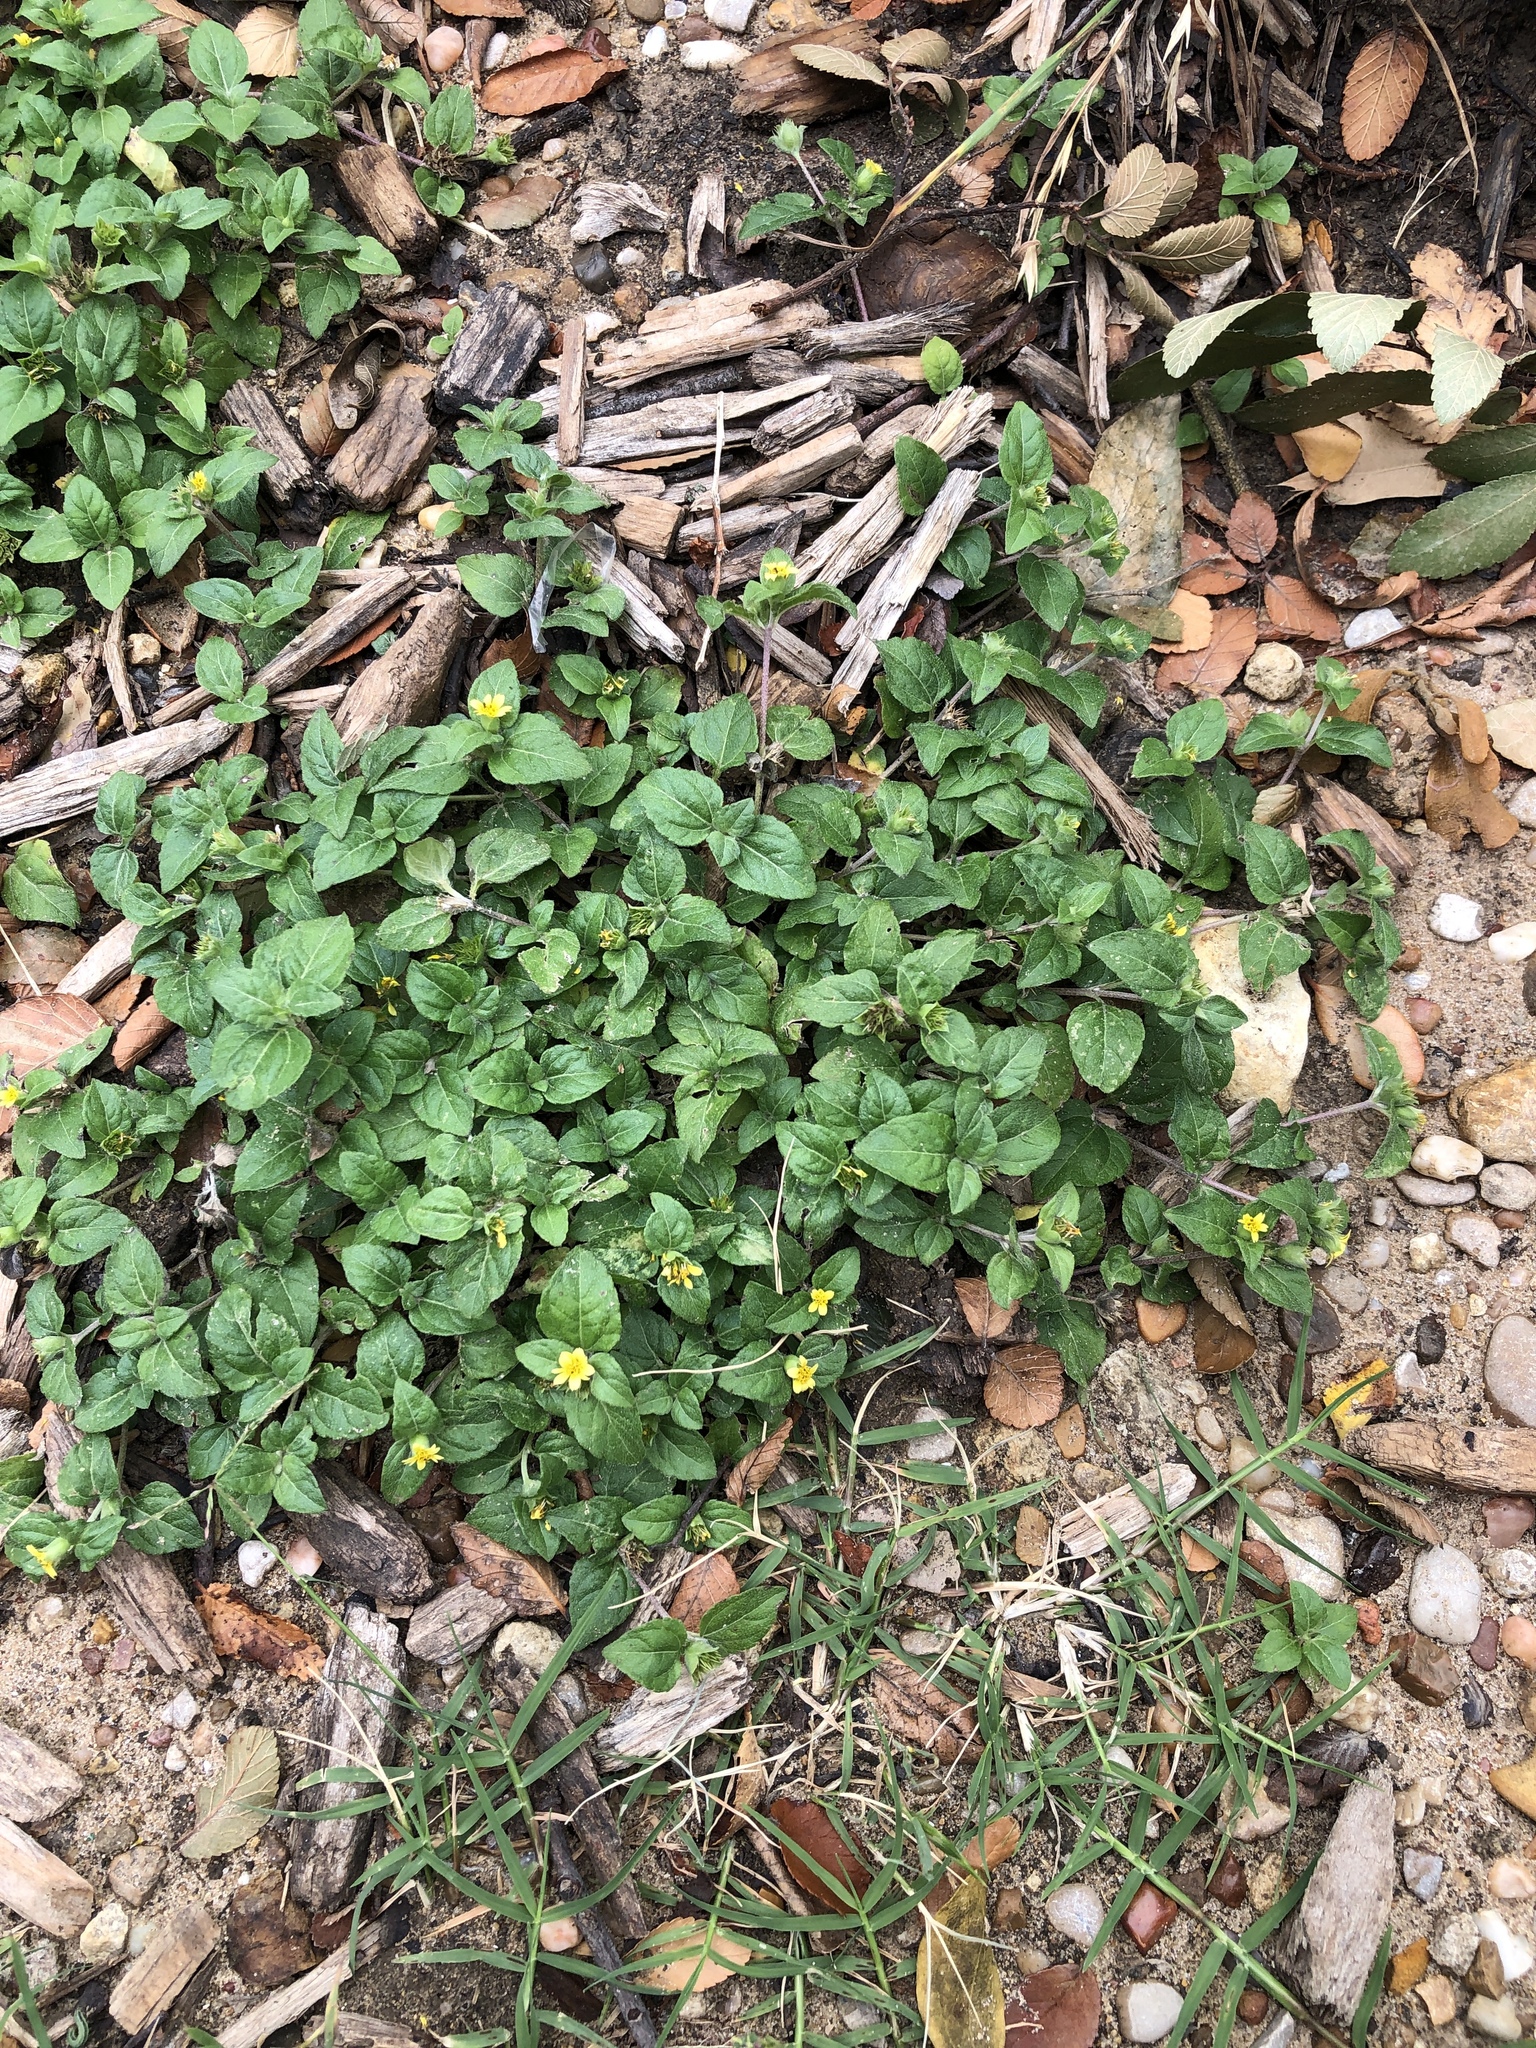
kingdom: Plantae
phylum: Tracheophyta
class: Magnoliopsida
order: Asterales
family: Asteraceae
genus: Calyptocarpus
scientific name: Calyptocarpus vialis
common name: Straggler daisy
